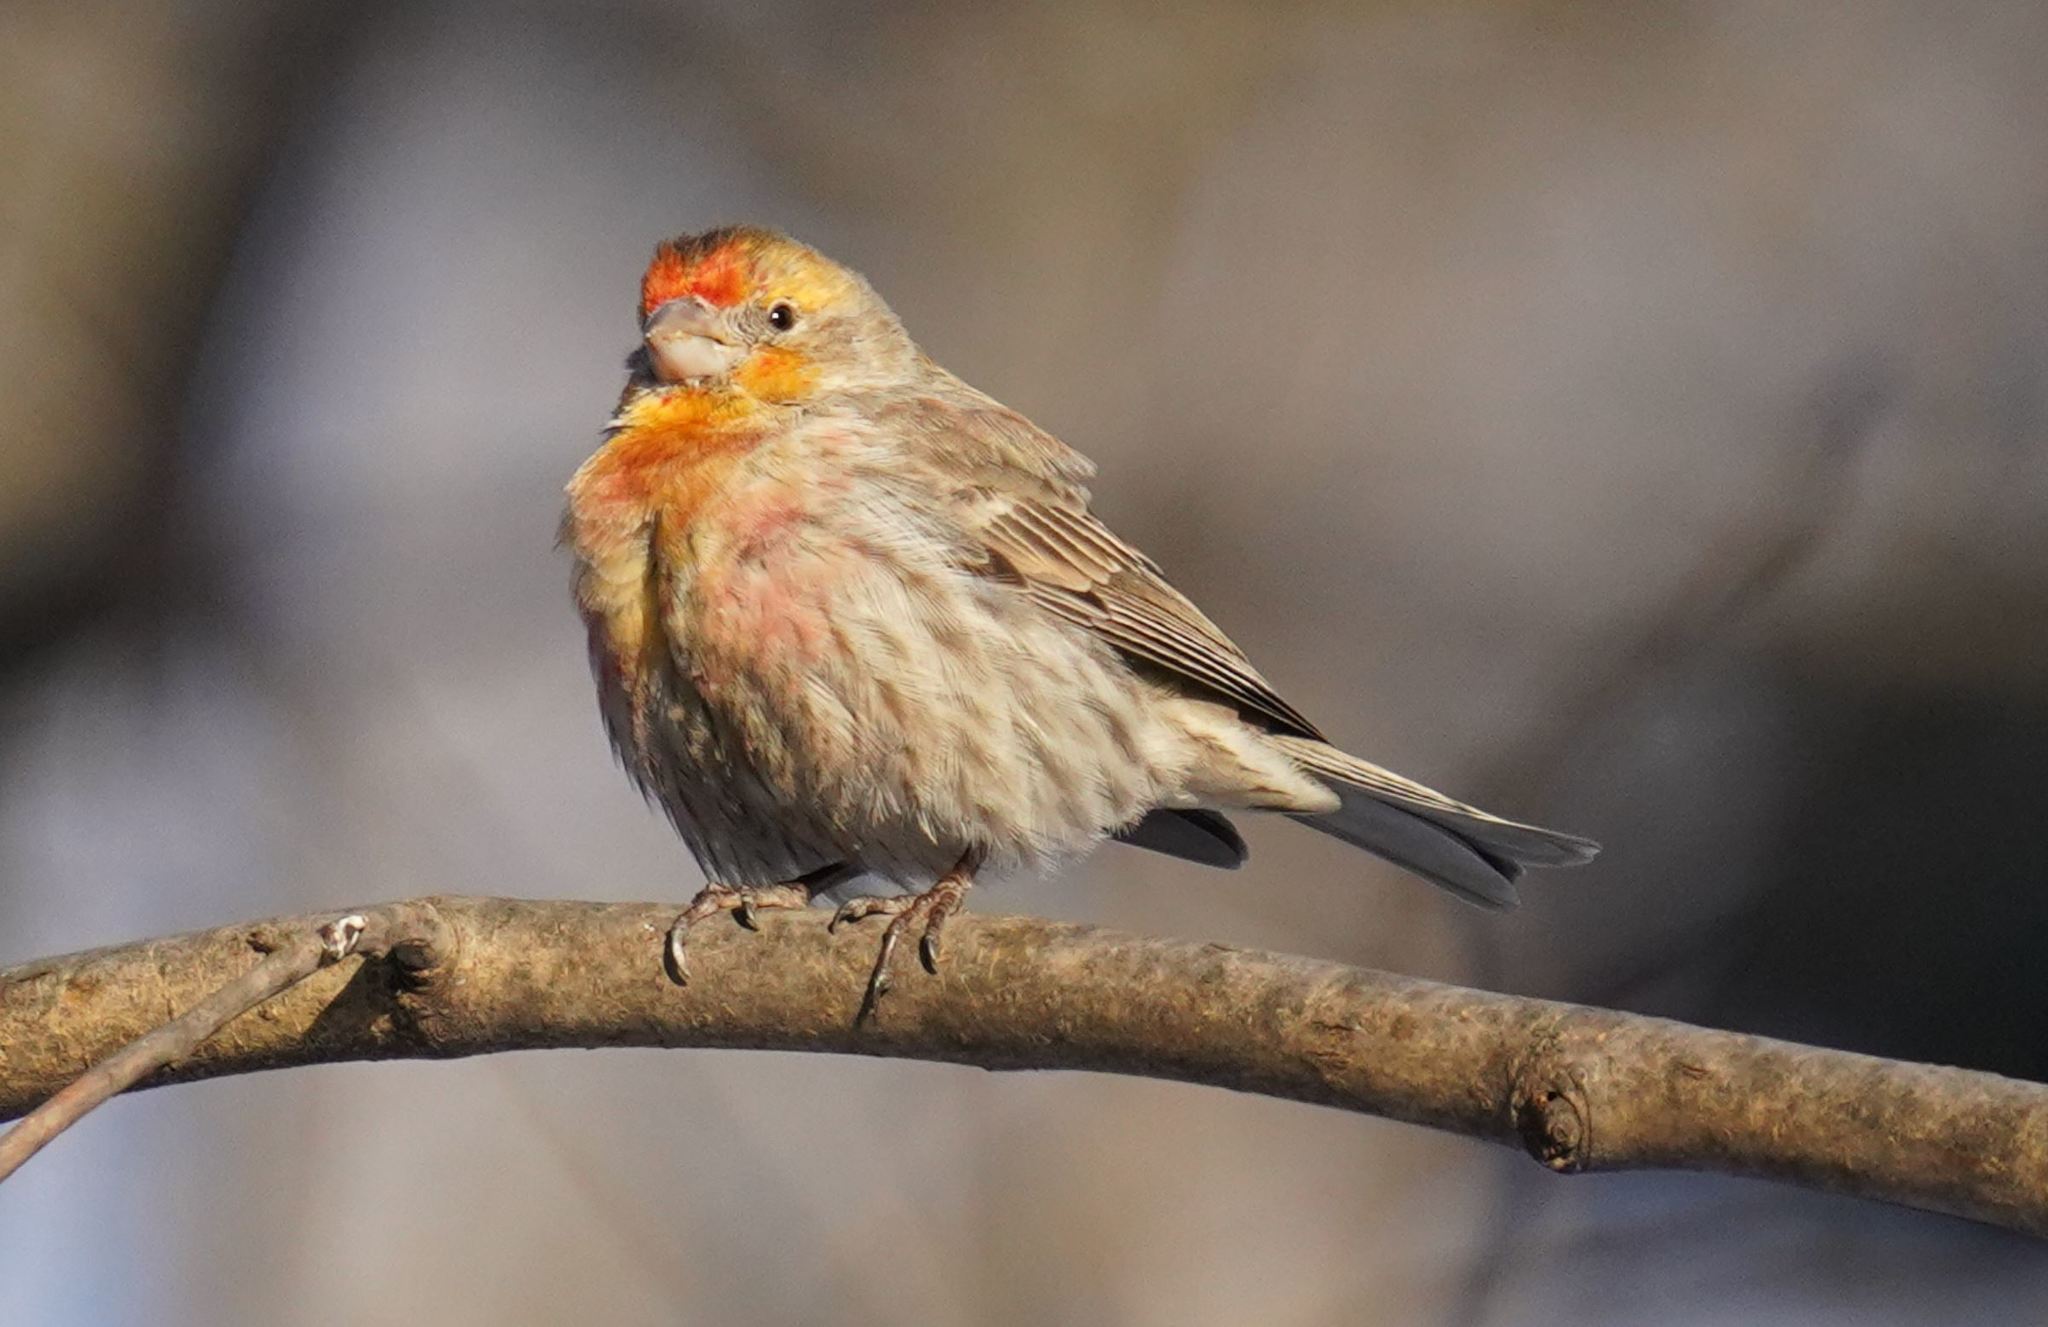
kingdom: Animalia
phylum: Chordata
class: Aves
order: Passeriformes
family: Fringillidae
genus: Haemorhous
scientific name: Haemorhous mexicanus
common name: House finch
